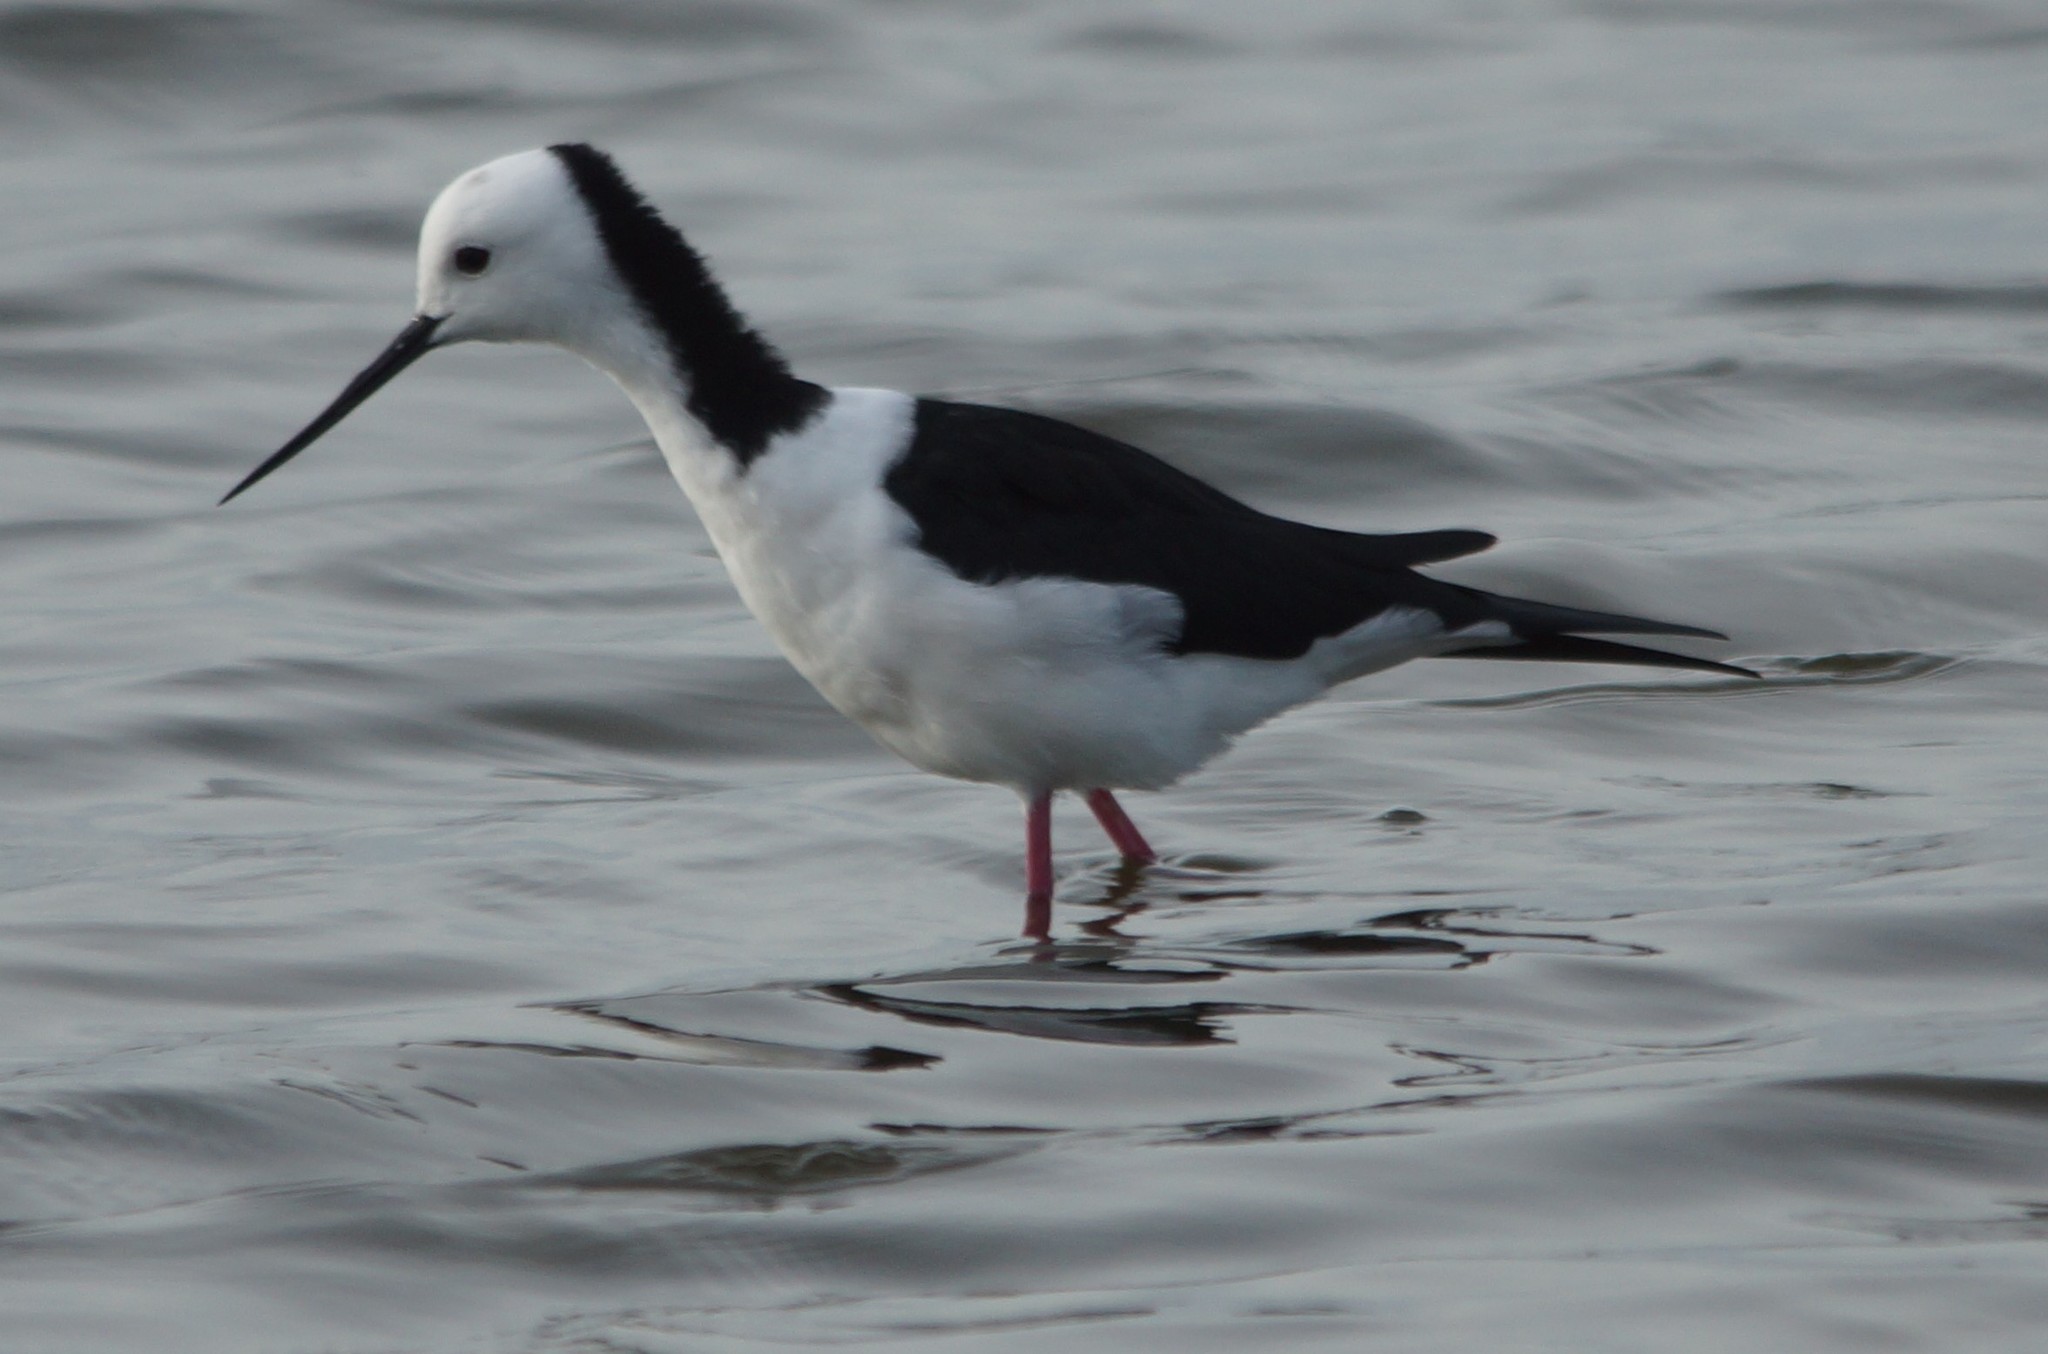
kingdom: Animalia
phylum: Chordata
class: Aves
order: Charadriiformes
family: Recurvirostridae
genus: Himantopus
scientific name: Himantopus leucocephalus
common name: White-headed stilt
